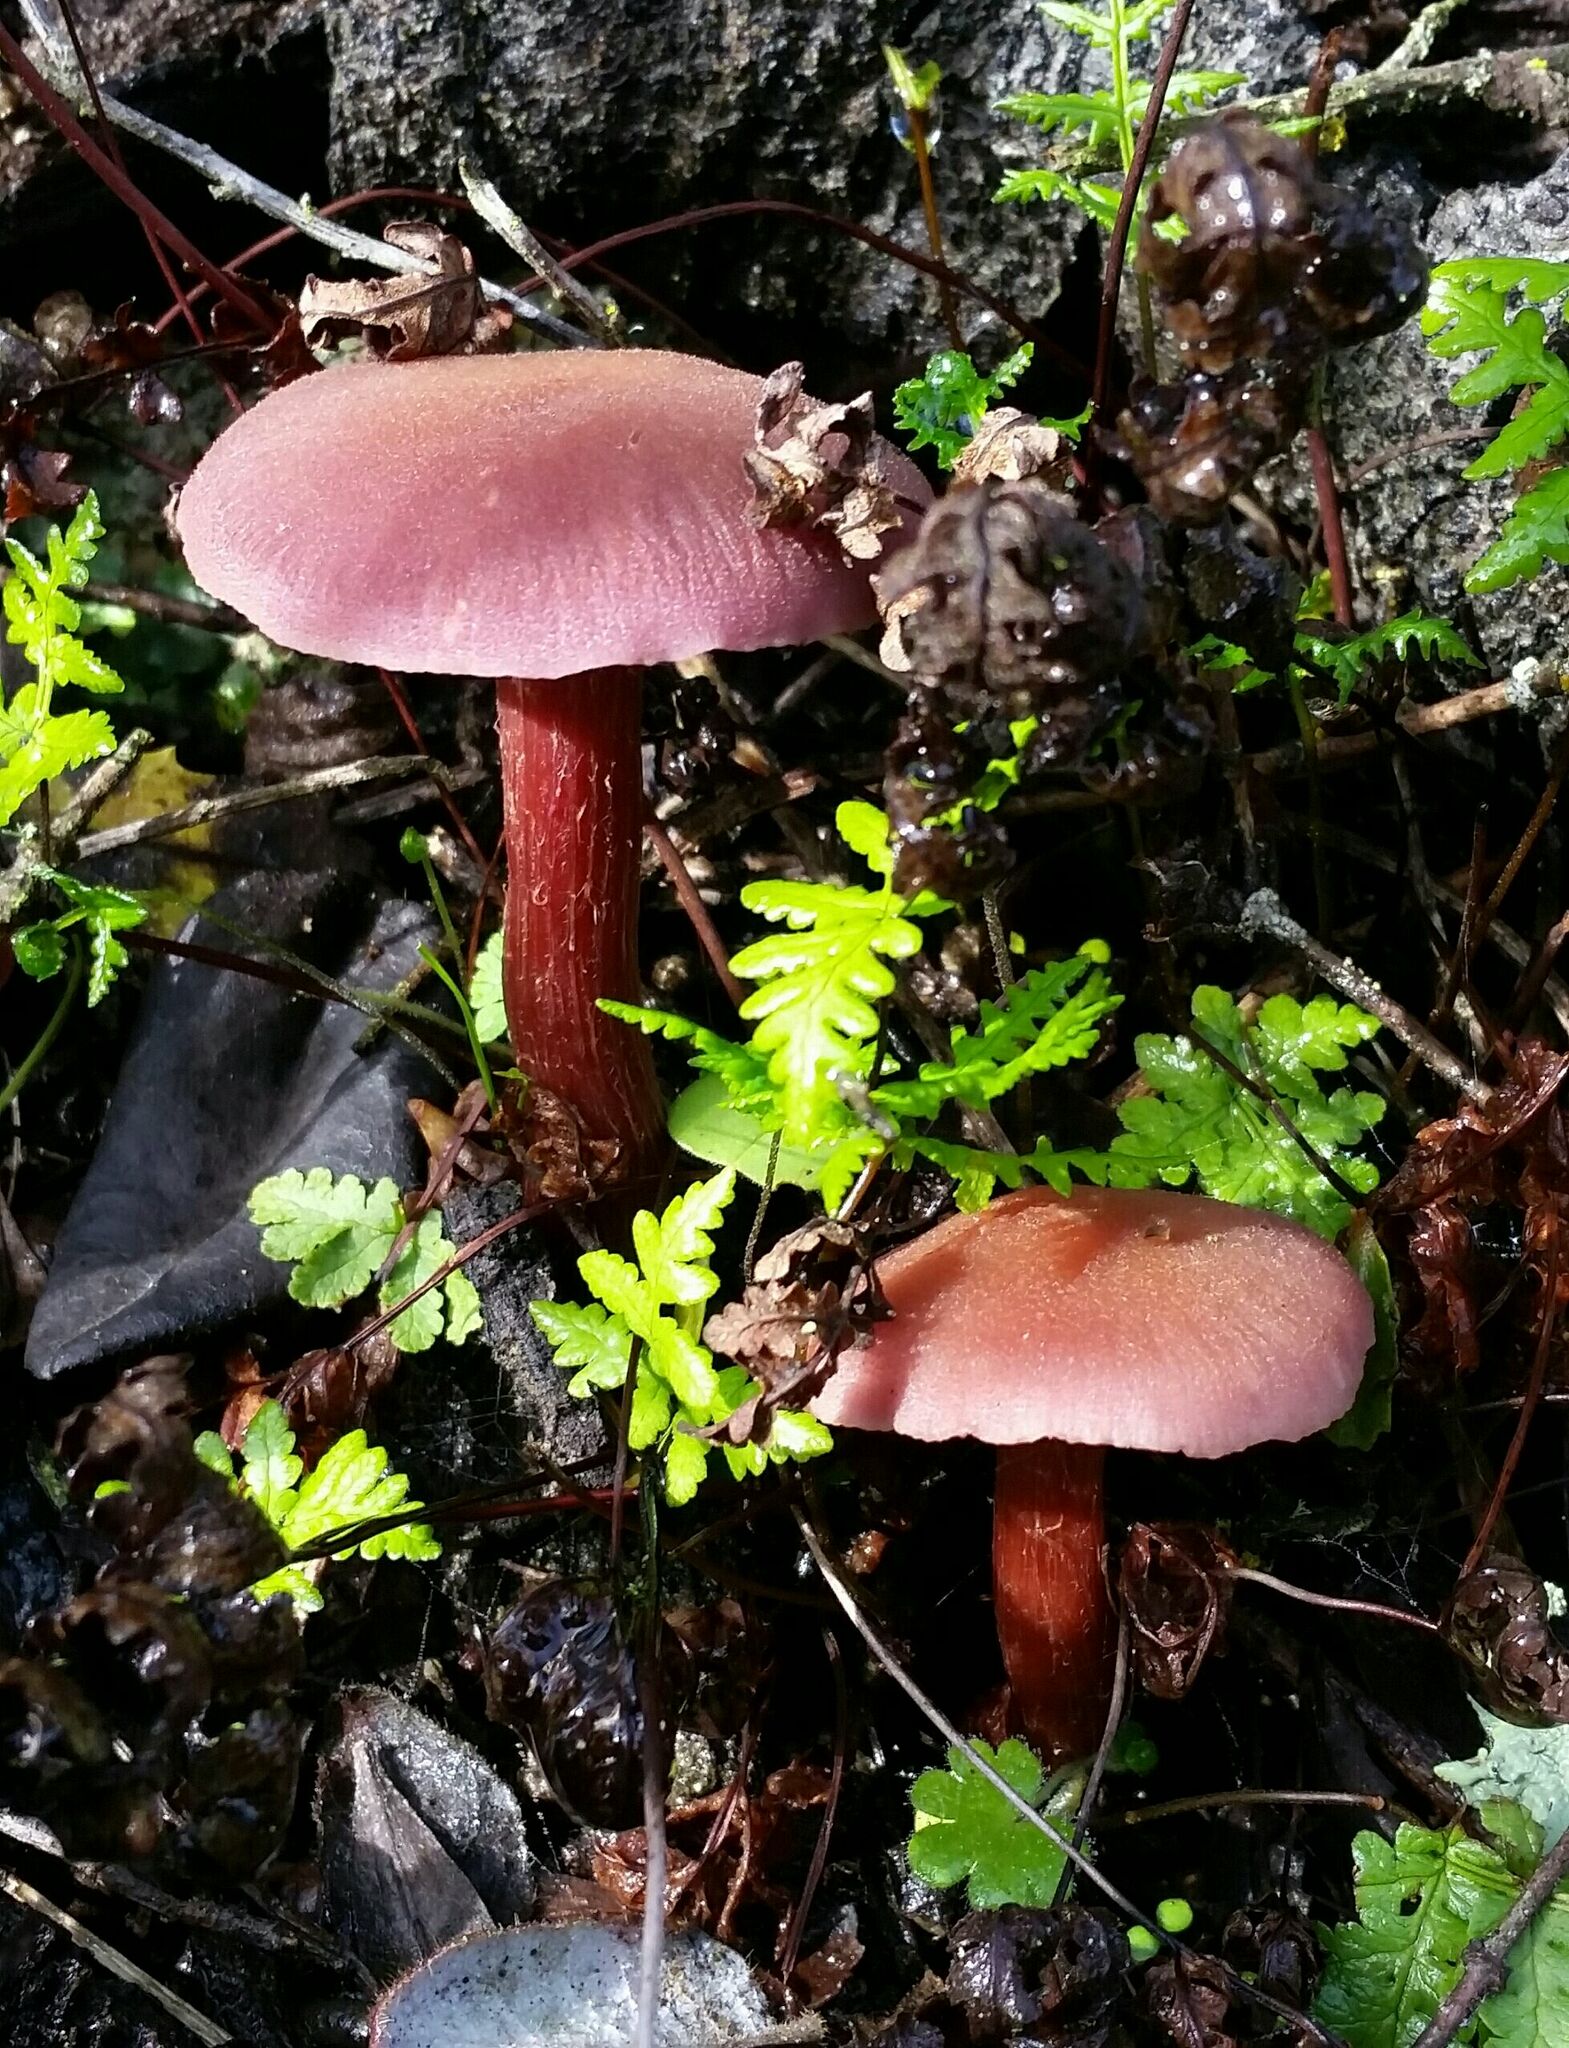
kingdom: Fungi
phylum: Basidiomycota
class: Agaricomycetes
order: Agaricales
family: Hydnangiaceae
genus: Laccaria
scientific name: Laccaria amethysteo-occidentalis
